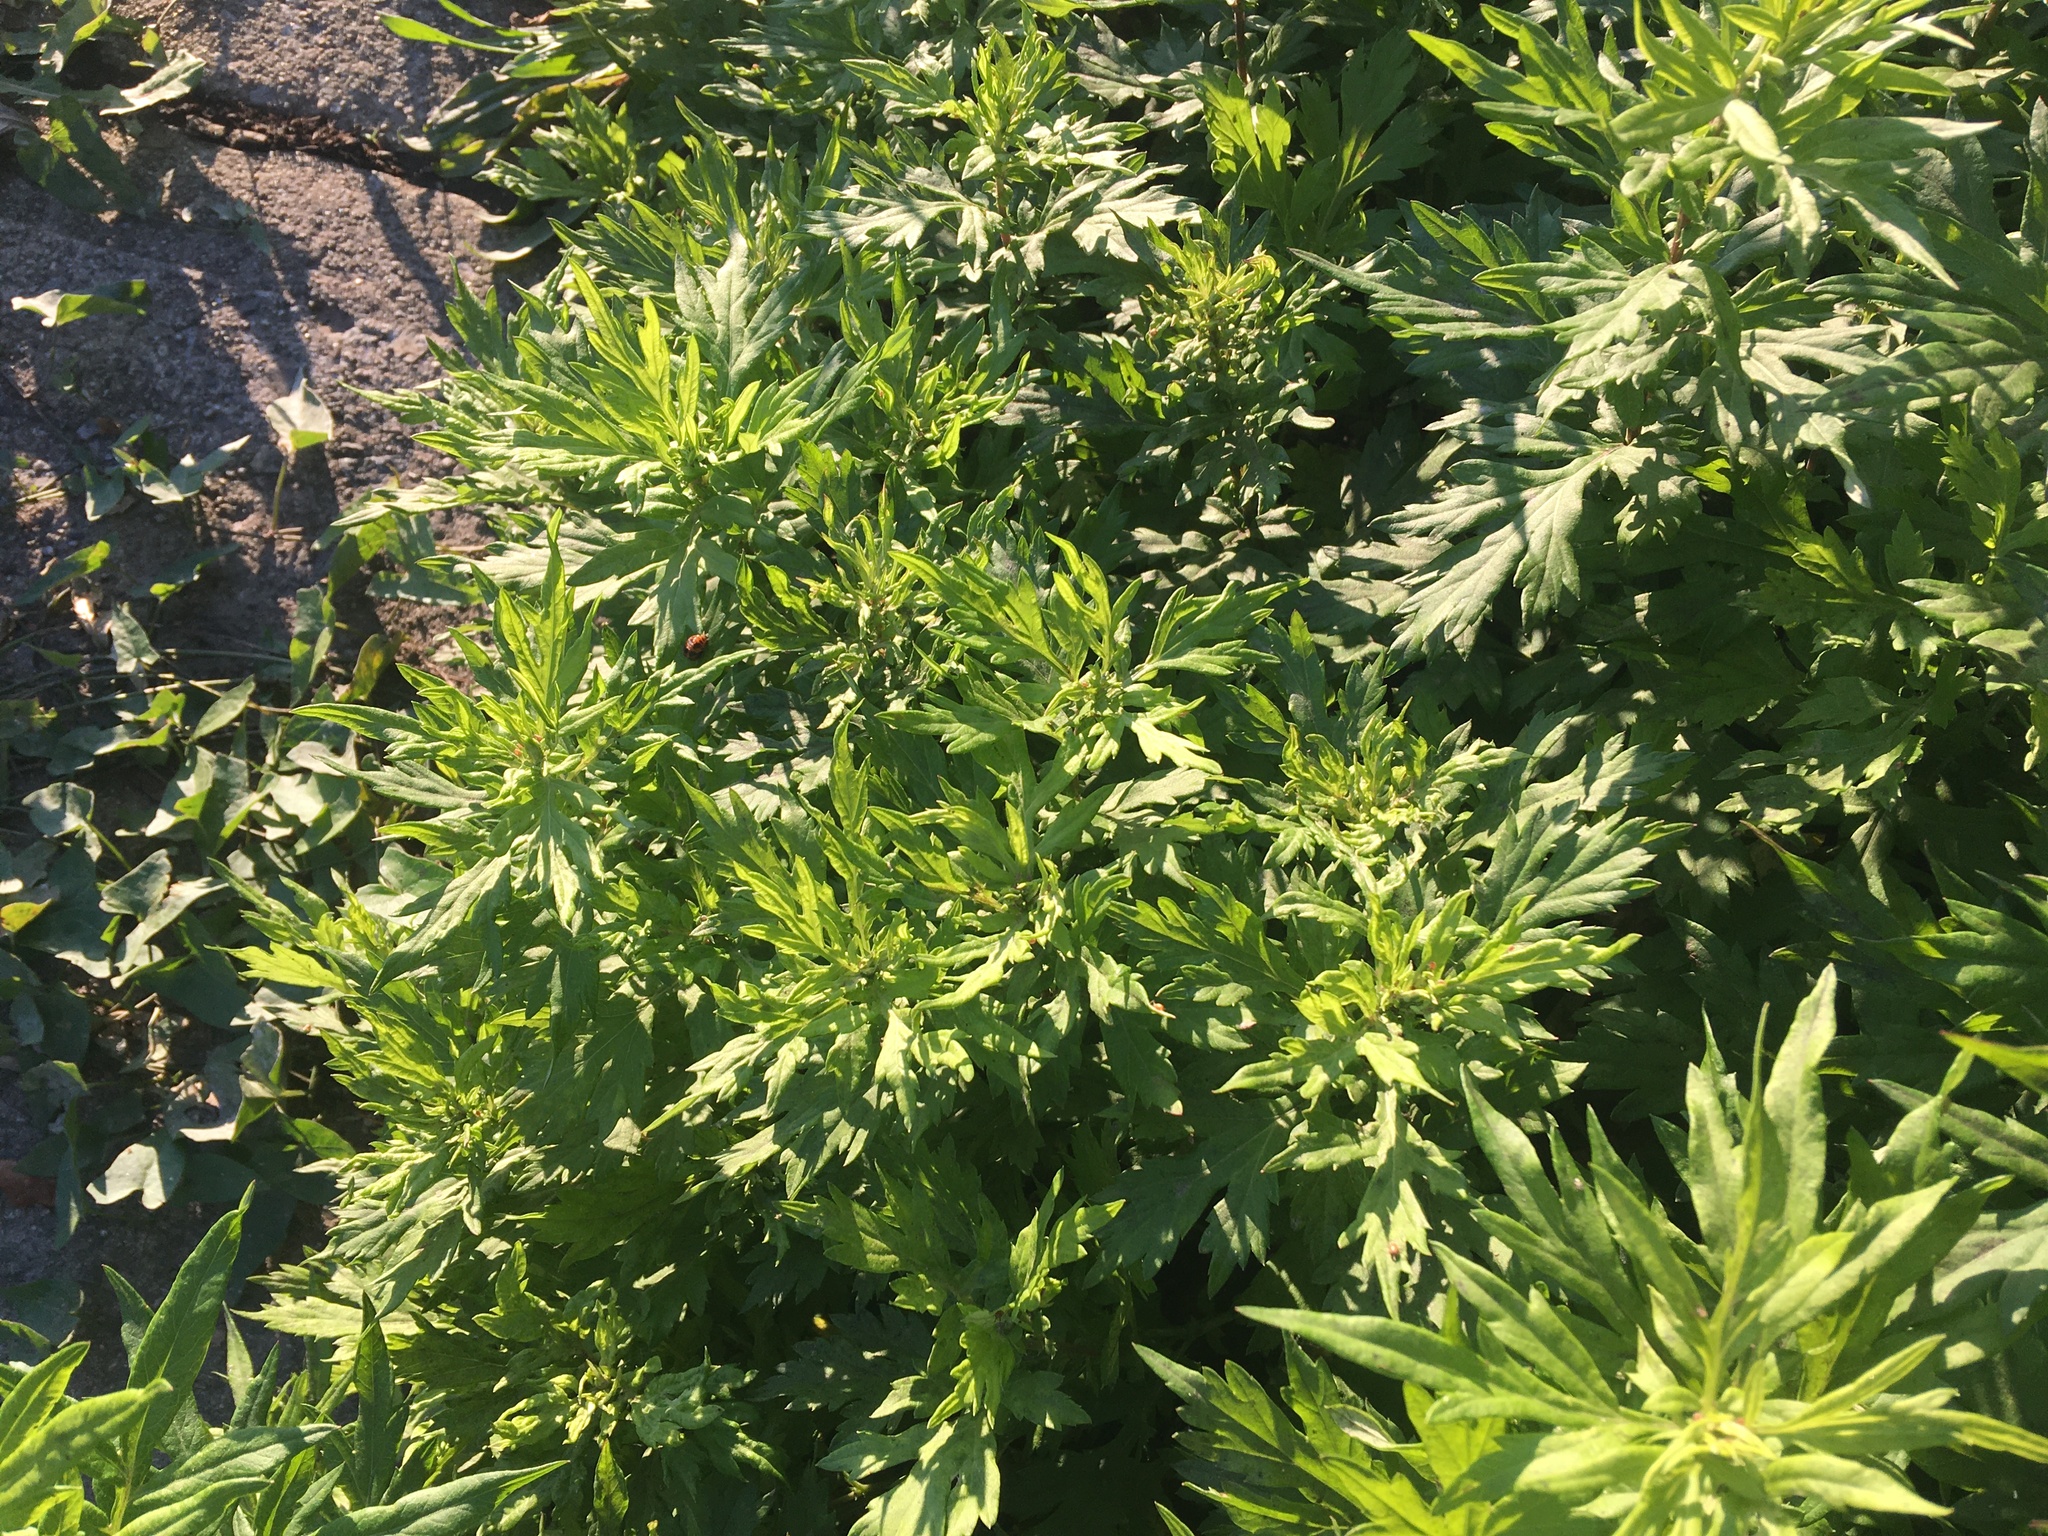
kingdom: Plantae
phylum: Tracheophyta
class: Magnoliopsida
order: Asterales
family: Asteraceae
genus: Artemisia
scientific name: Artemisia vulgaris
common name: Mugwort
